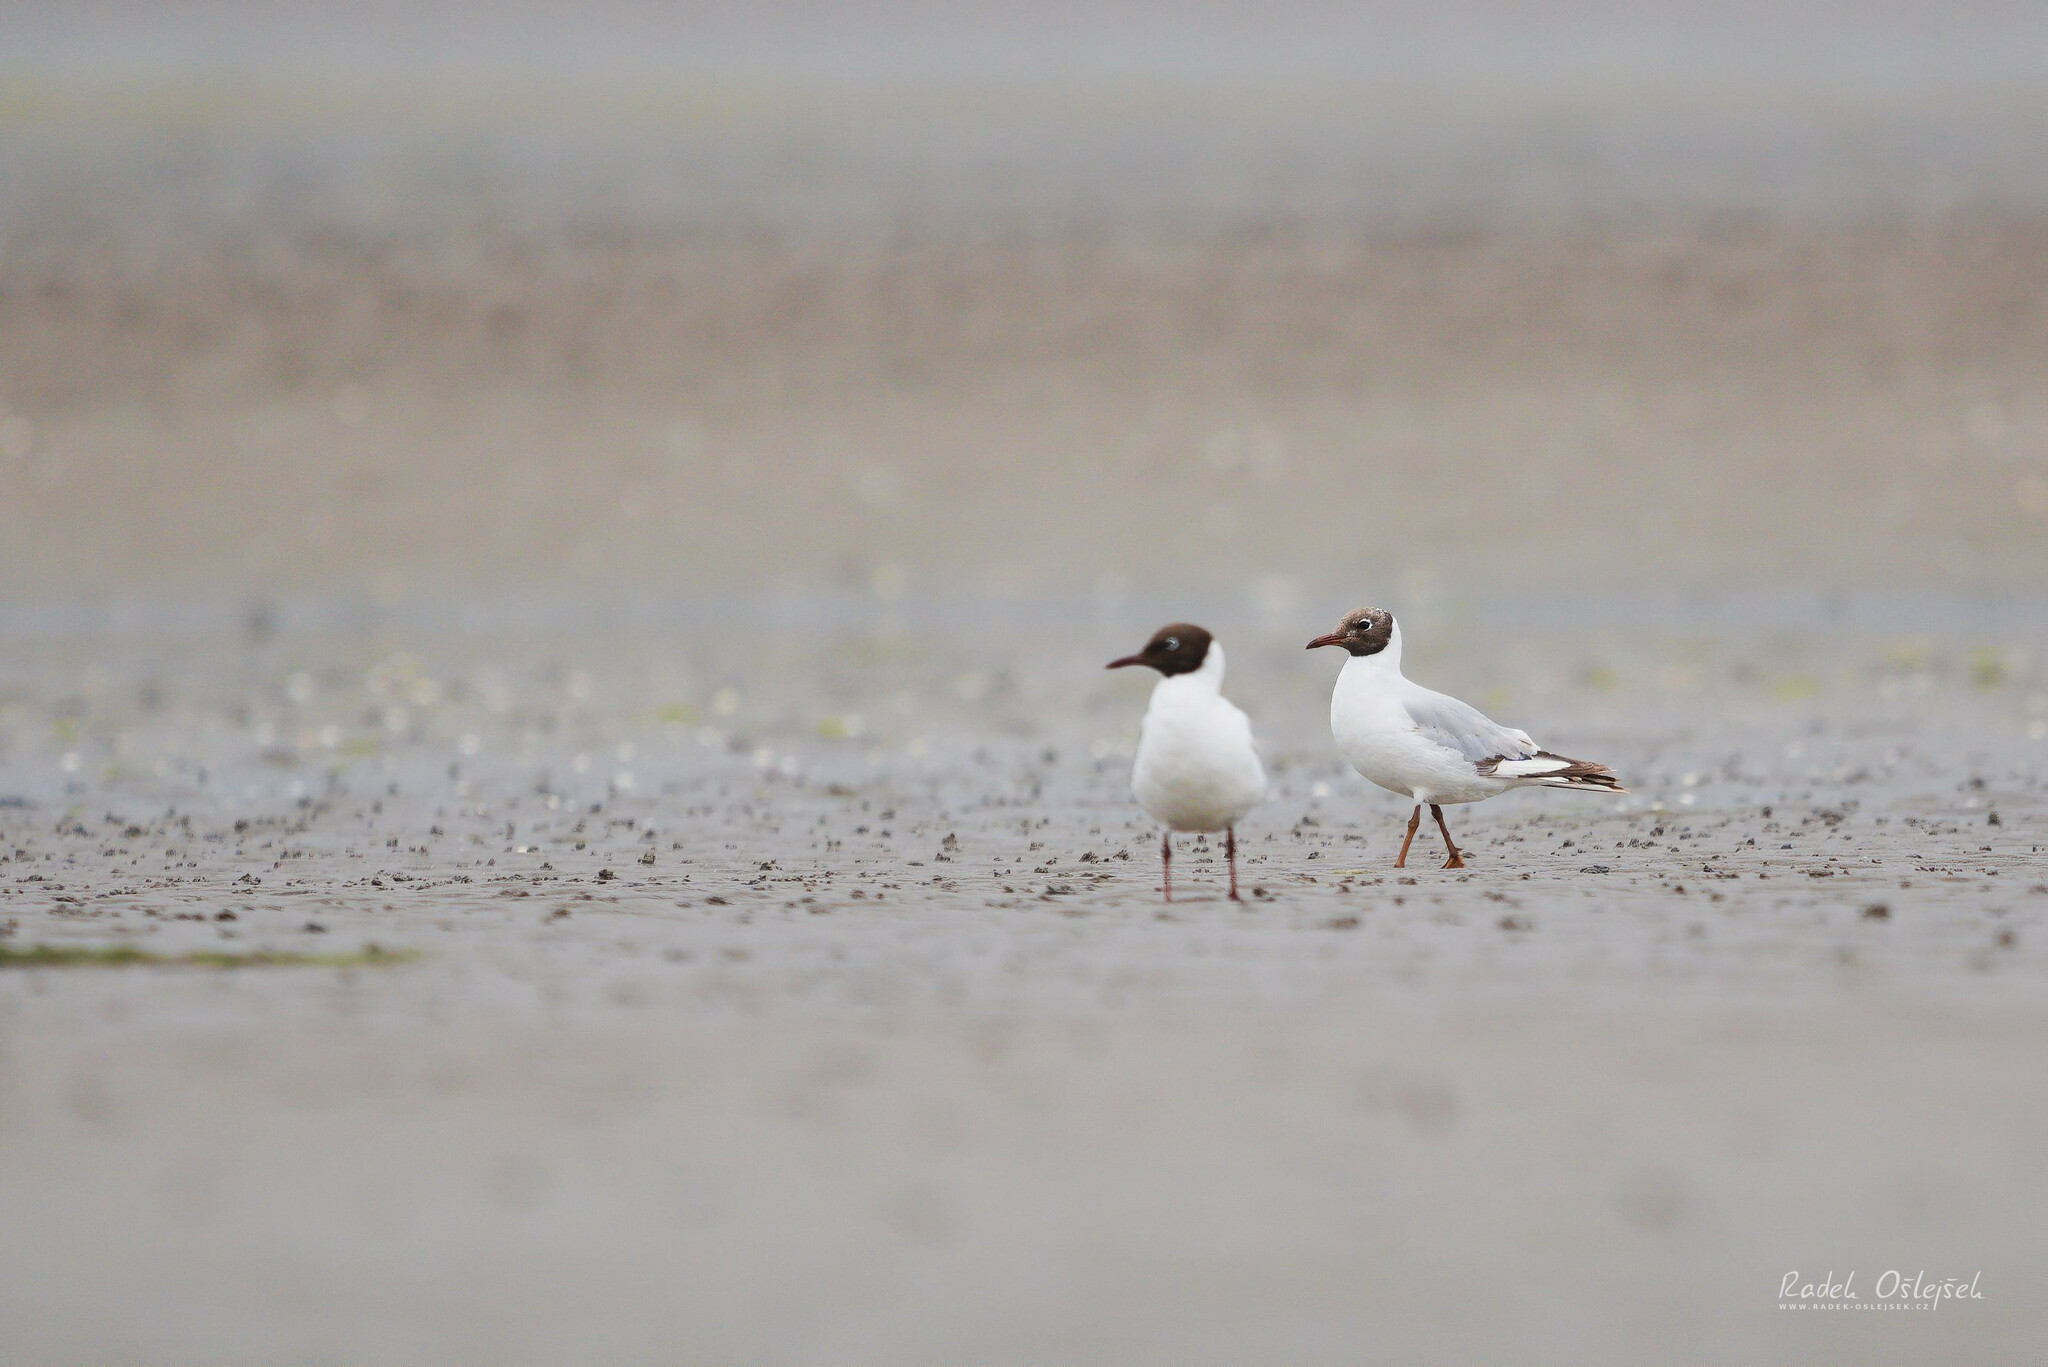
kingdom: Animalia
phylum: Chordata
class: Aves
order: Charadriiformes
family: Laridae
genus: Chroicocephalus
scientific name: Chroicocephalus ridibundus
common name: Black-headed gull
